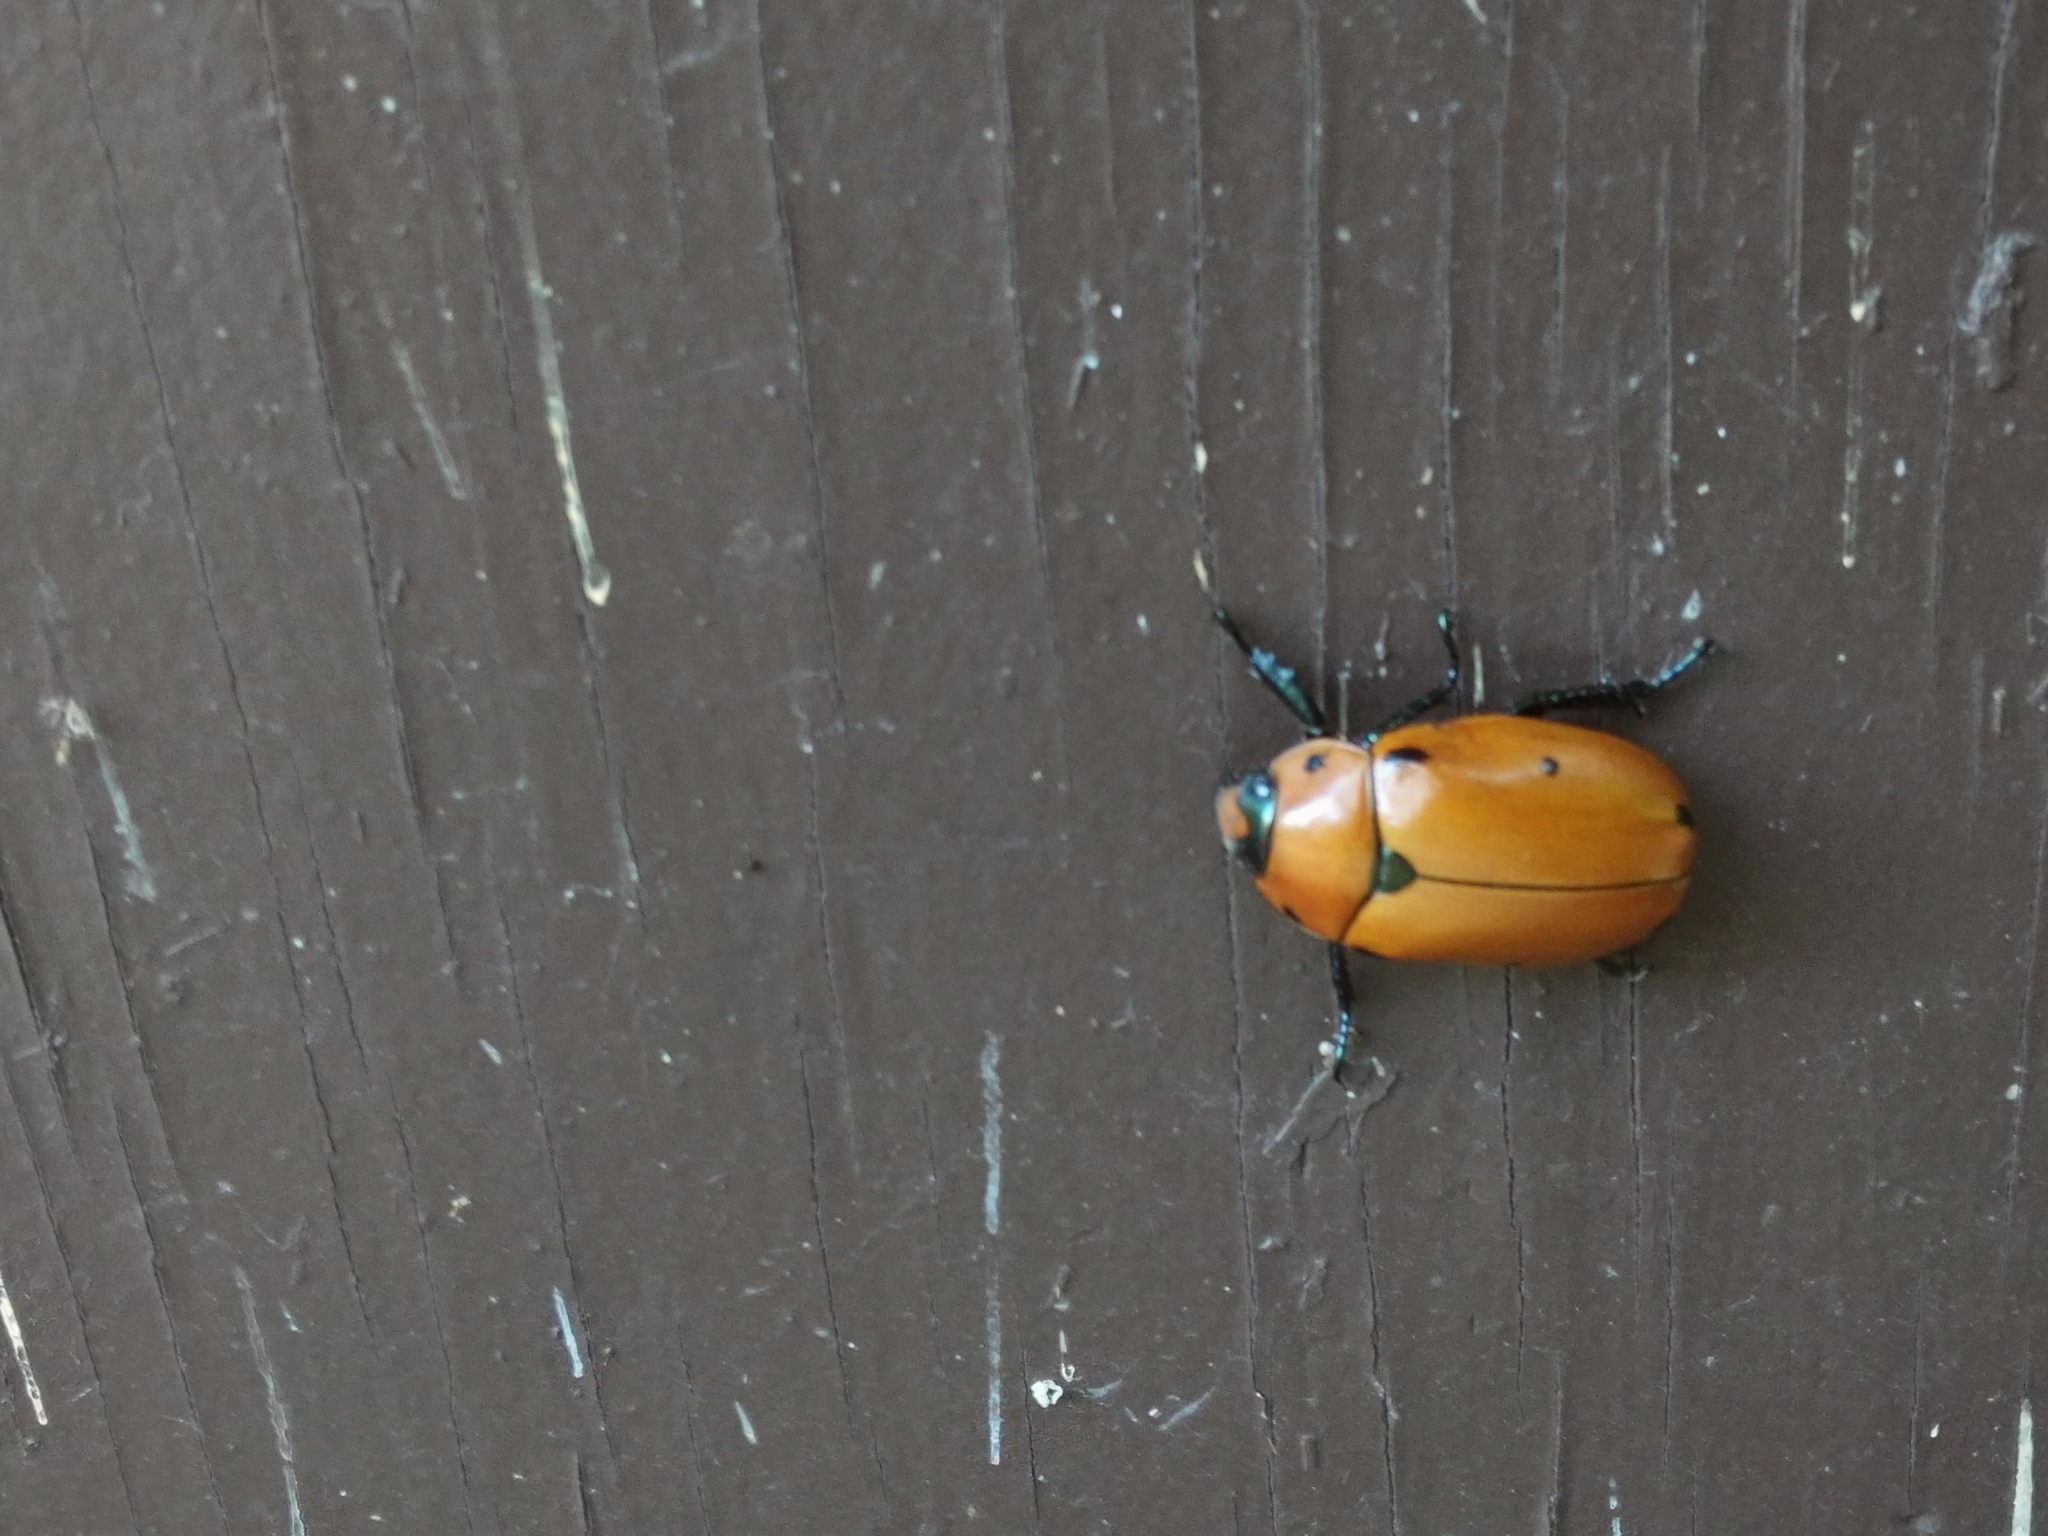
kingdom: Animalia
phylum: Arthropoda
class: Insecta
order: Coleoptera
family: Scarabaeidae
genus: Pelidnota
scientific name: Pelidnota punctata
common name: Grapevine beetle
